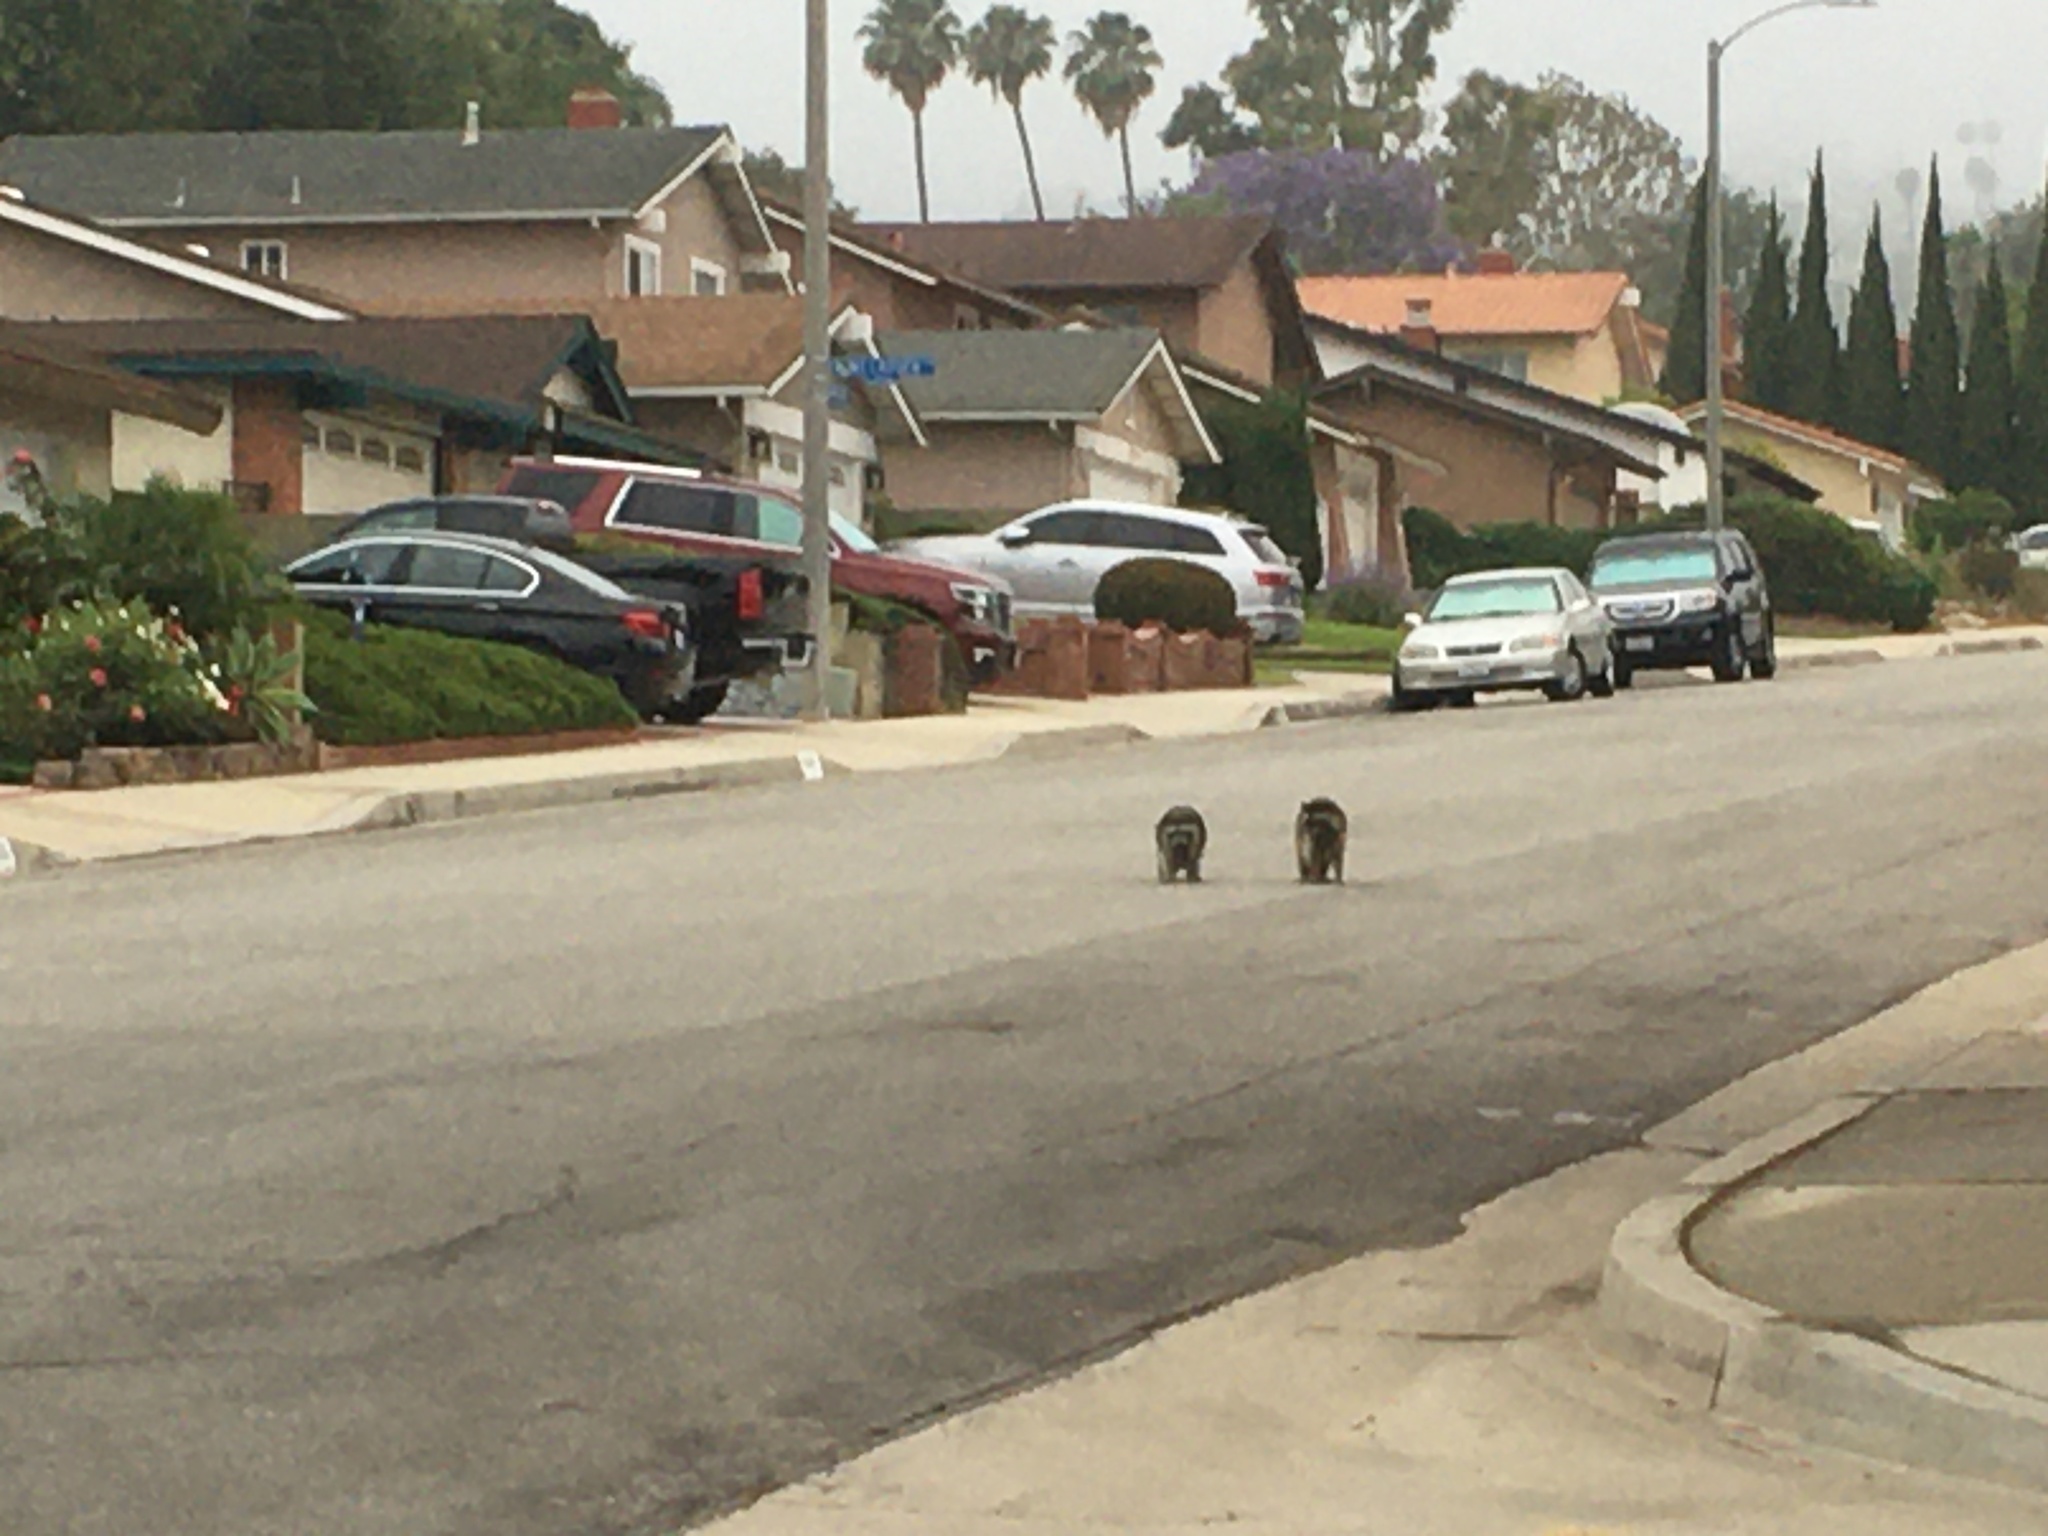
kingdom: Animalia
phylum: Chordata
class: Mammalia
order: Carnivora
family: Procyonidae
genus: Procyon
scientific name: Procyon lotor
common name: Raccoon
